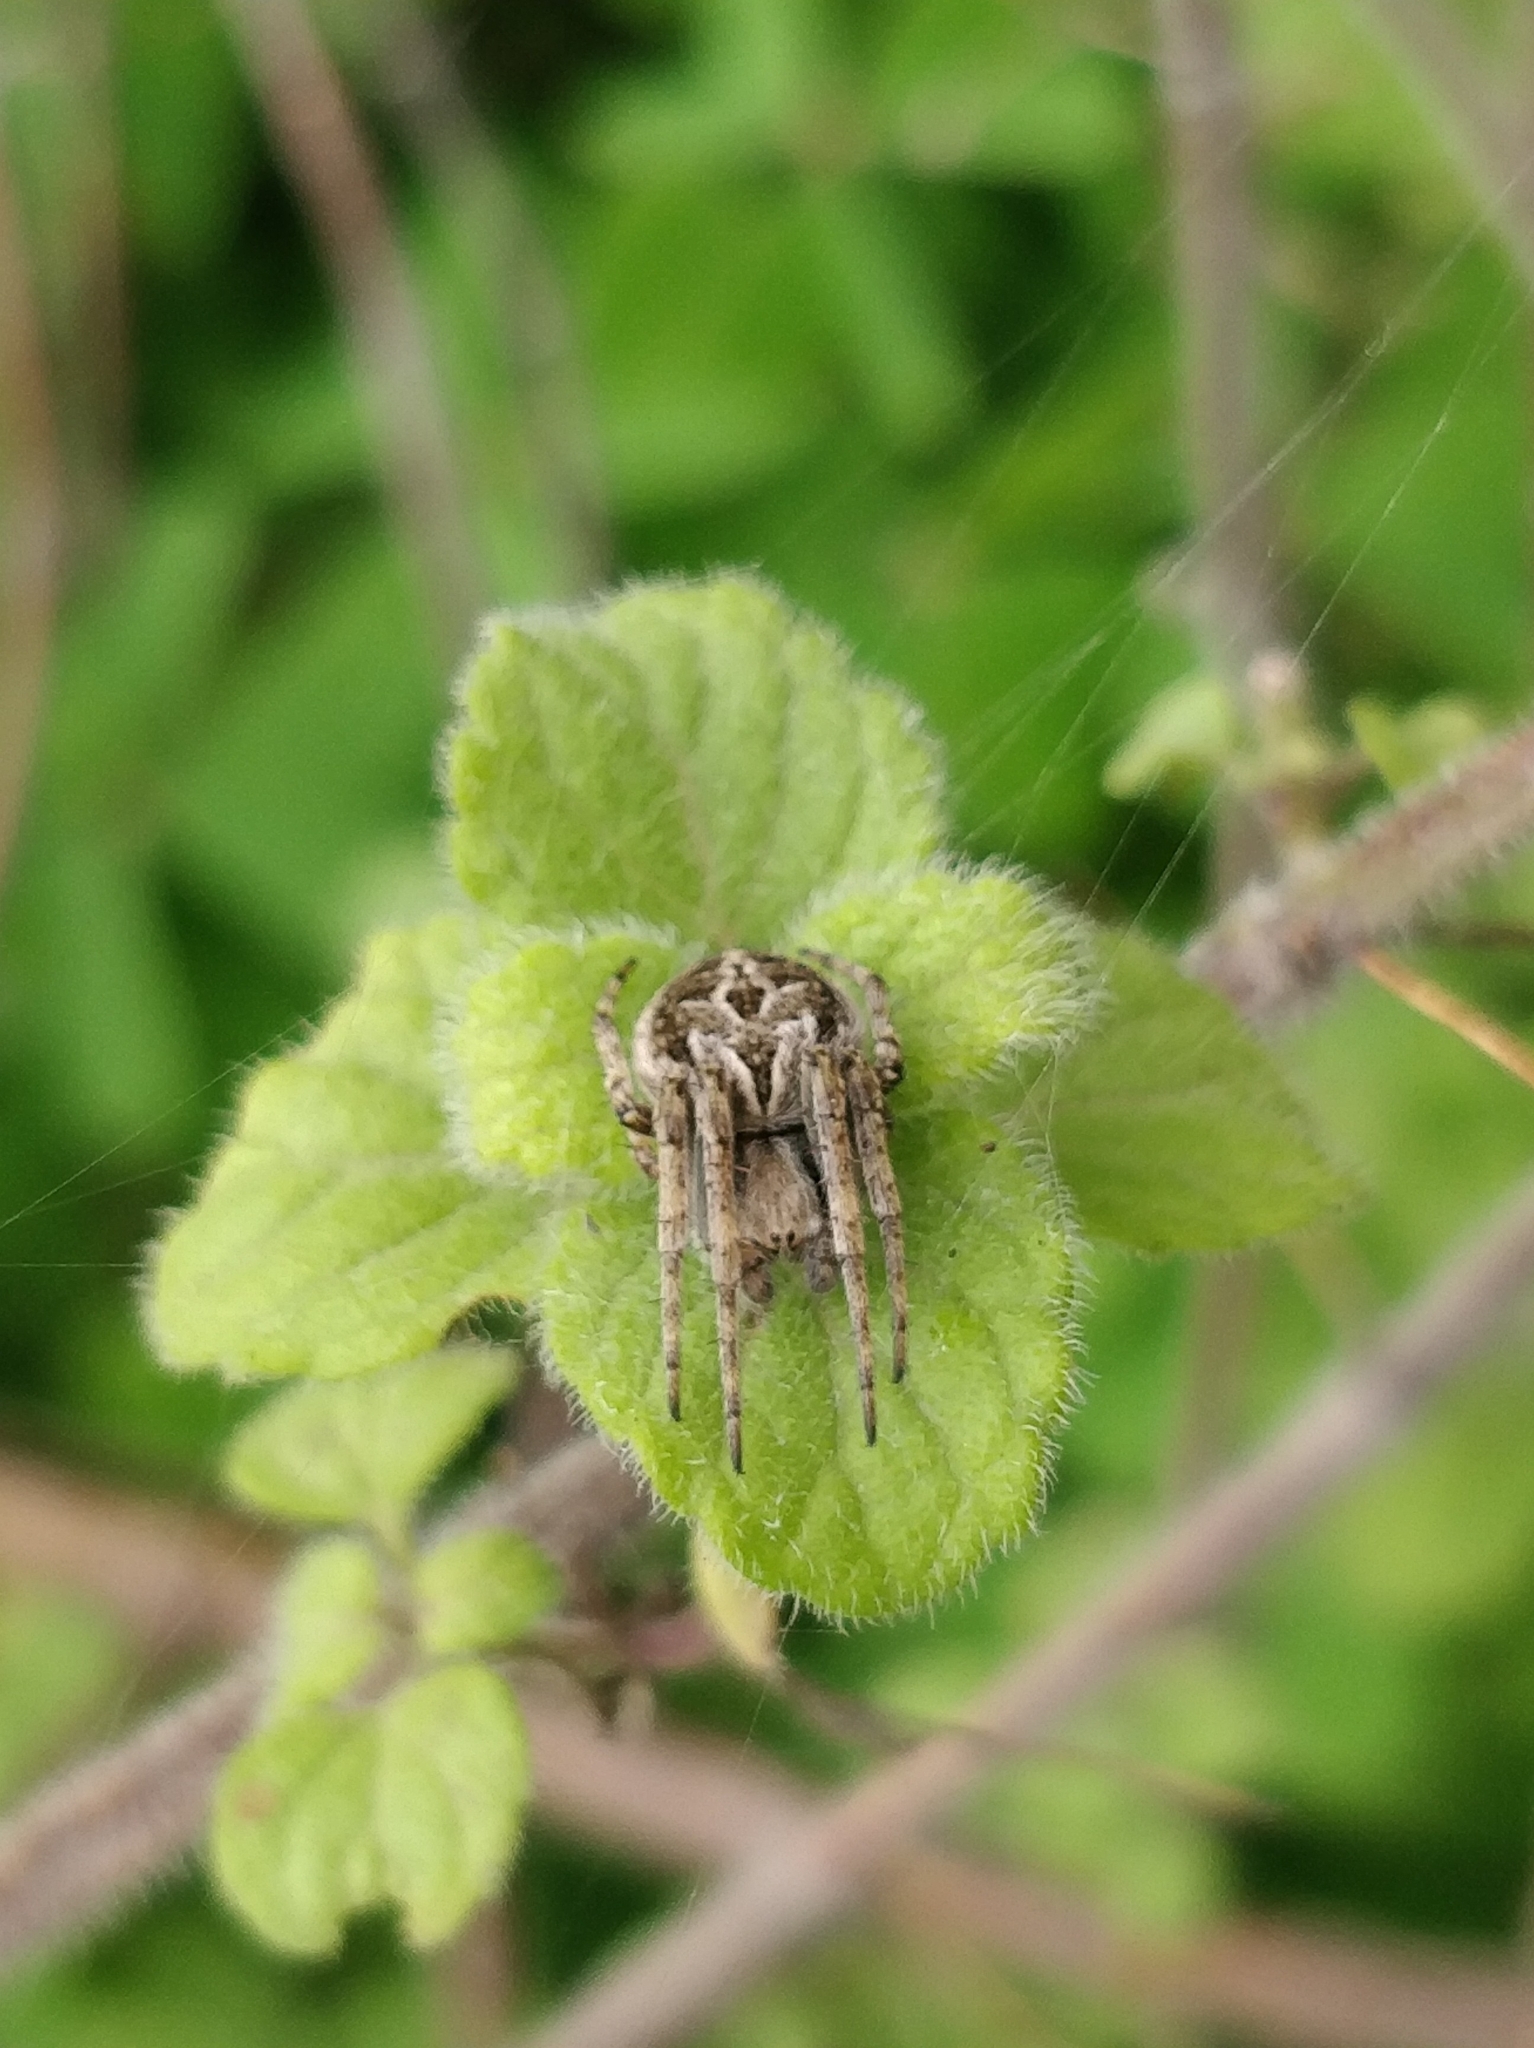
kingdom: Animalia
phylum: Arthropoda
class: Arachnida
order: Araneae
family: Araneidae
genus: Agalenatea
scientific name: Agalenatea redii
